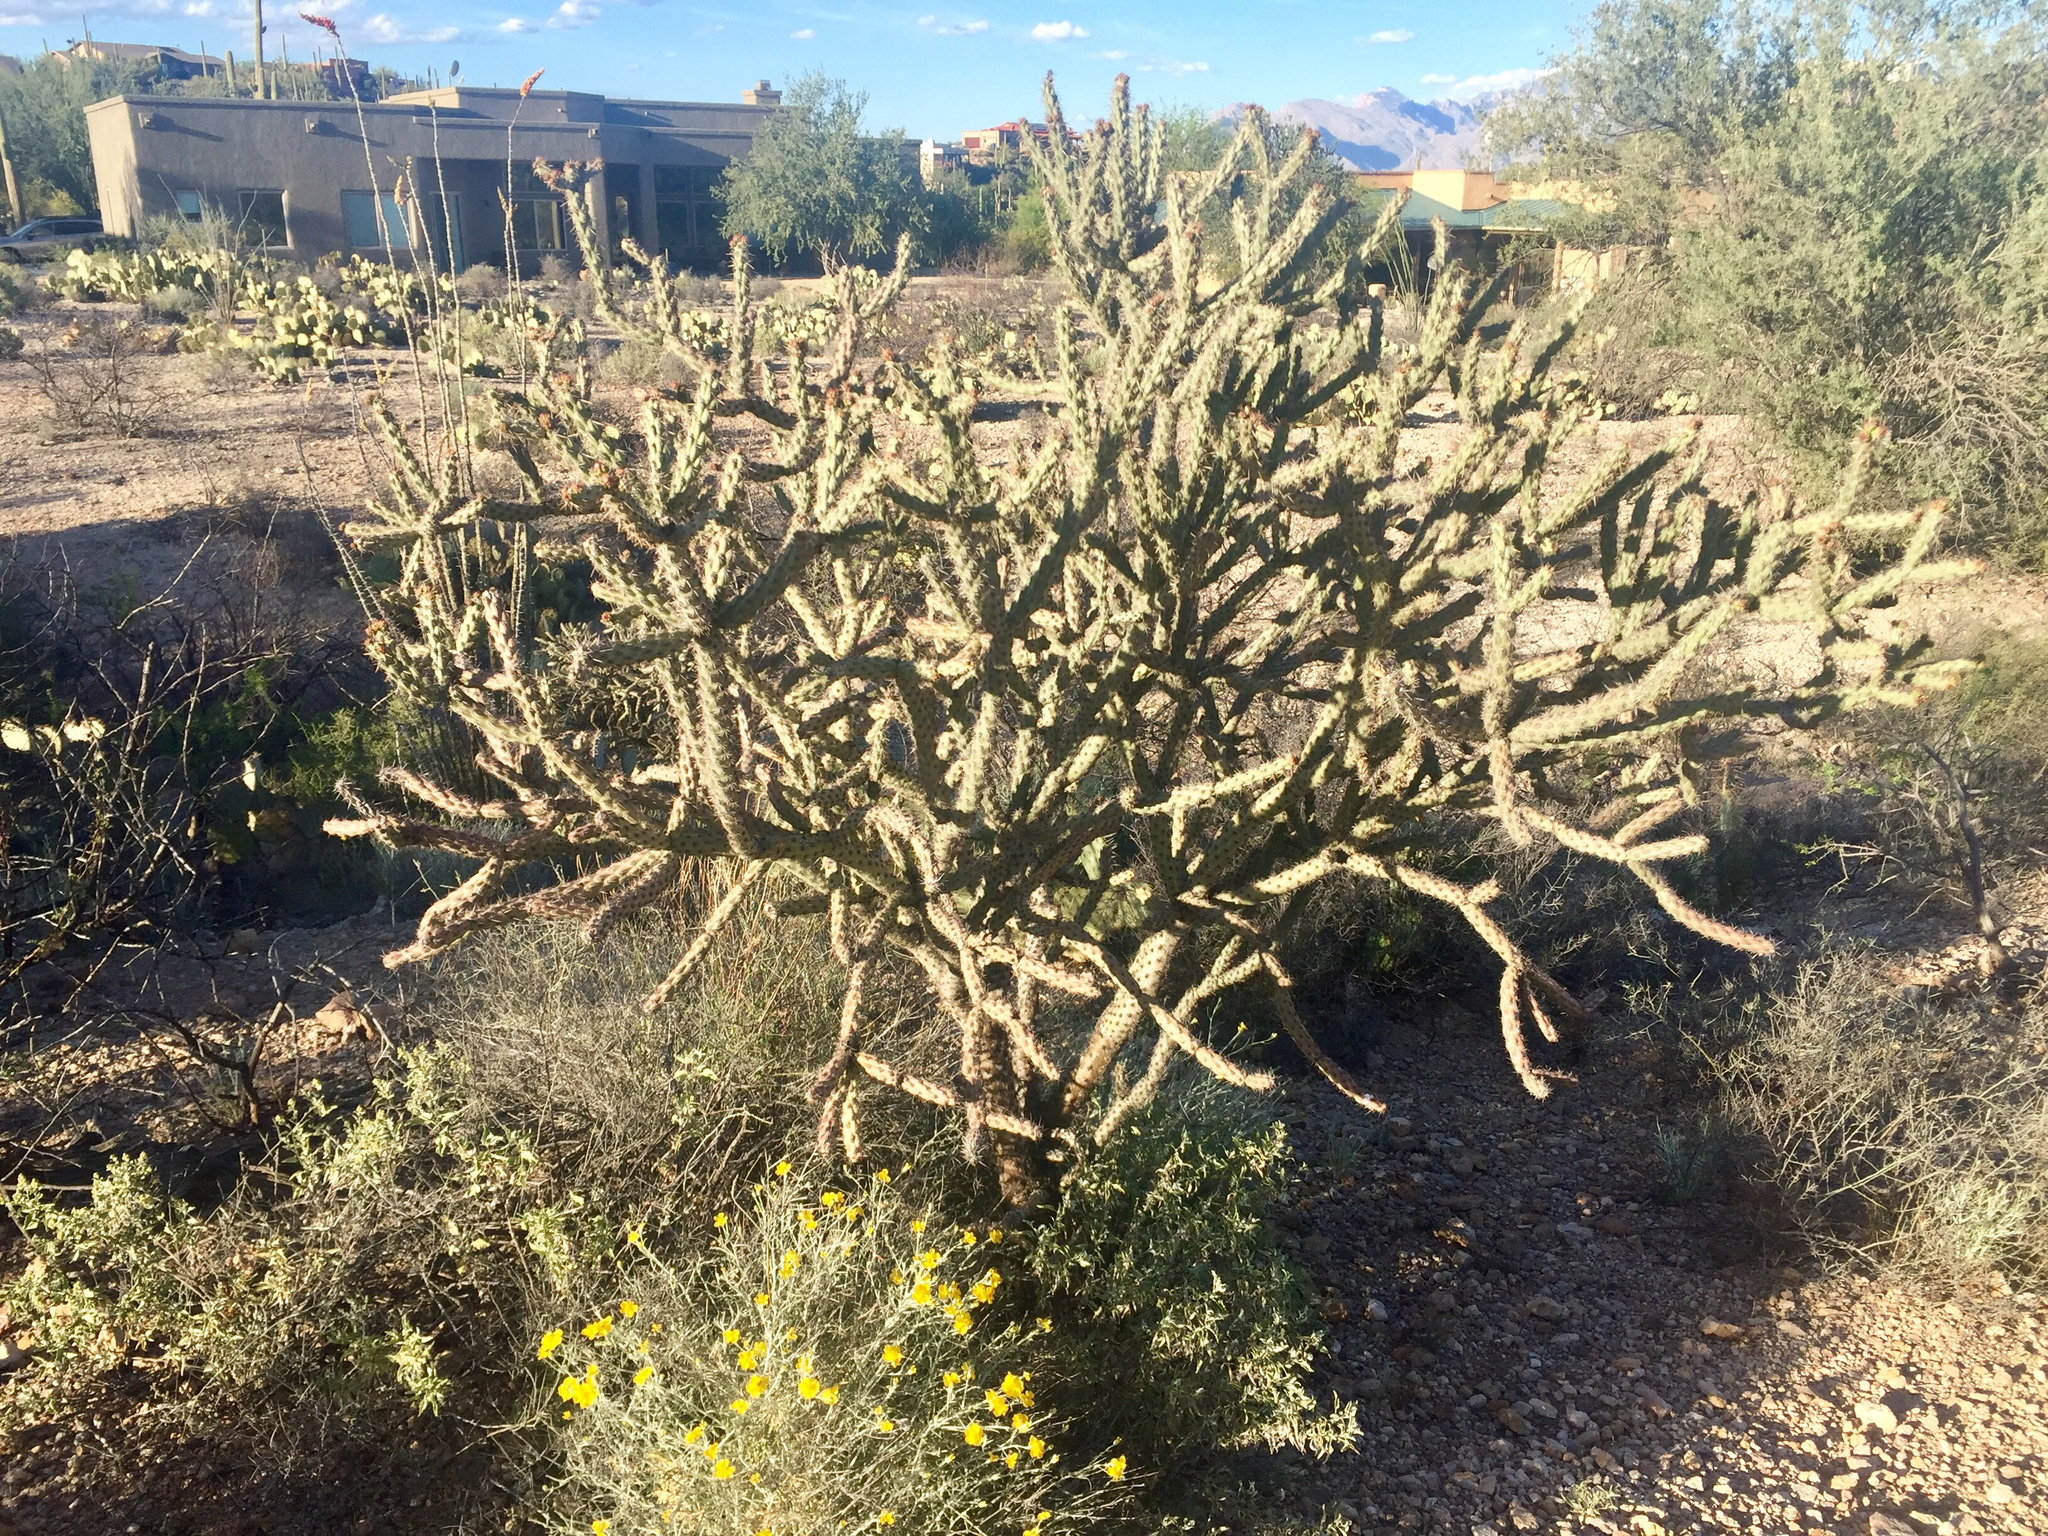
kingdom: Plantae
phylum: Tracheophyta
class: Magnoliopsida
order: Caryophyllales
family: Cactaceae
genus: Cylindropuntia
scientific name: Cylindropuntia acanthocarpa
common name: Buckhorn cholla
